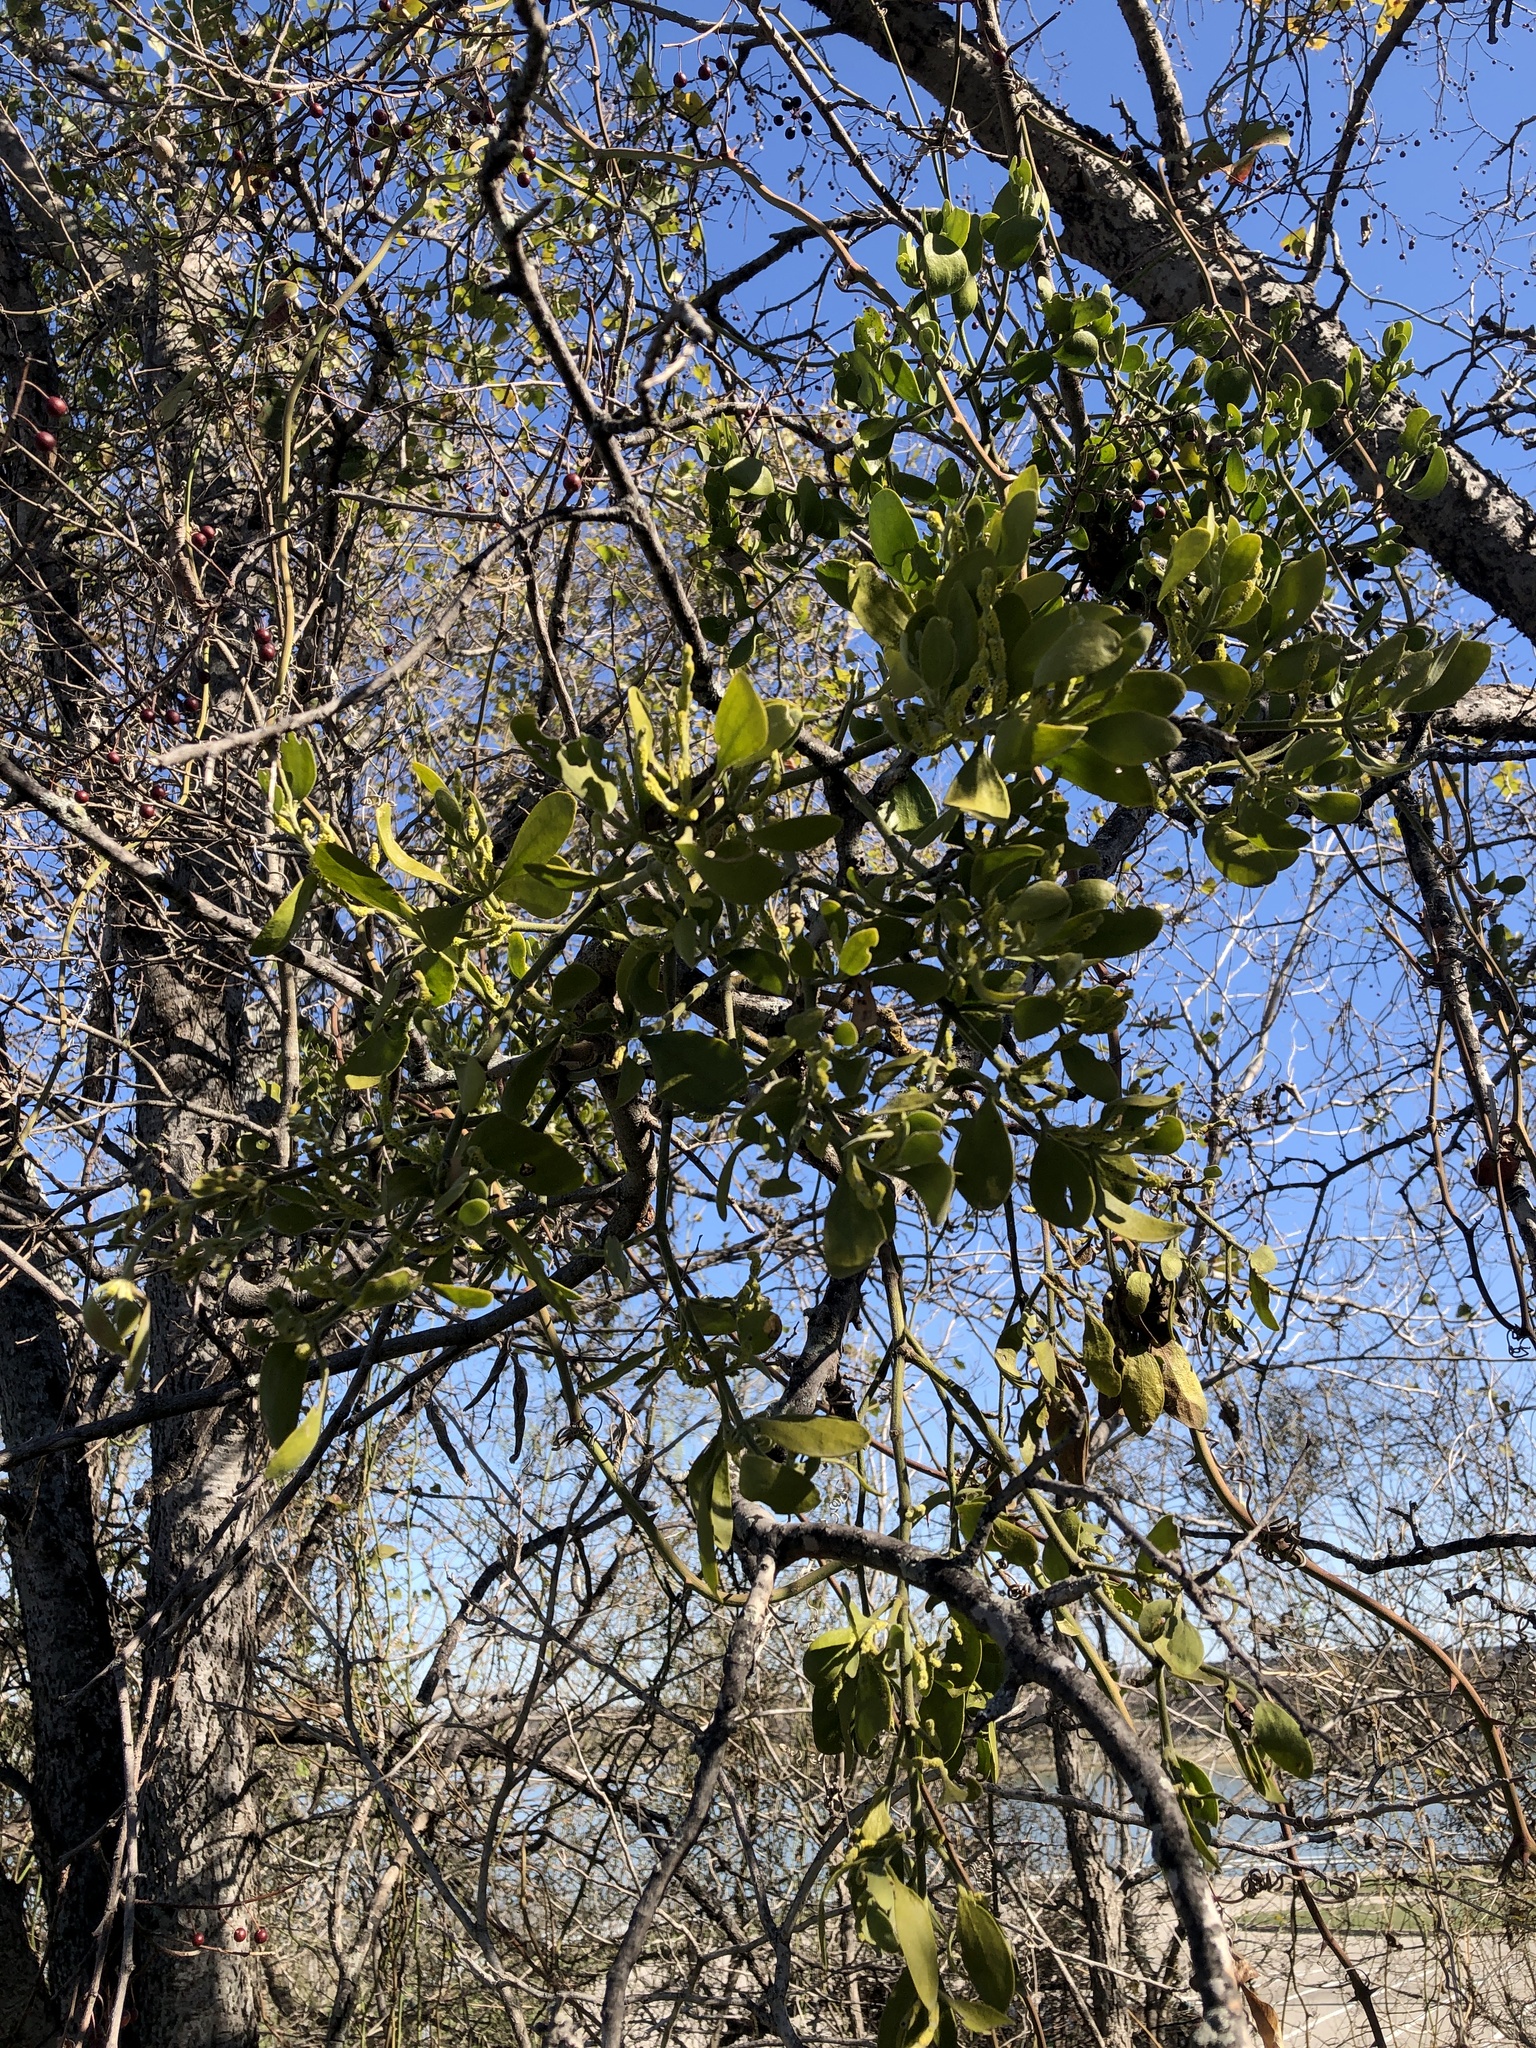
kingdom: Plantae
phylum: Tracheophyta
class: Magnoliopsida
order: Santalales
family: Viscaceae
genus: Phoradendron
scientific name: Phoradendron leucarpum
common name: Pacific mistletoe
